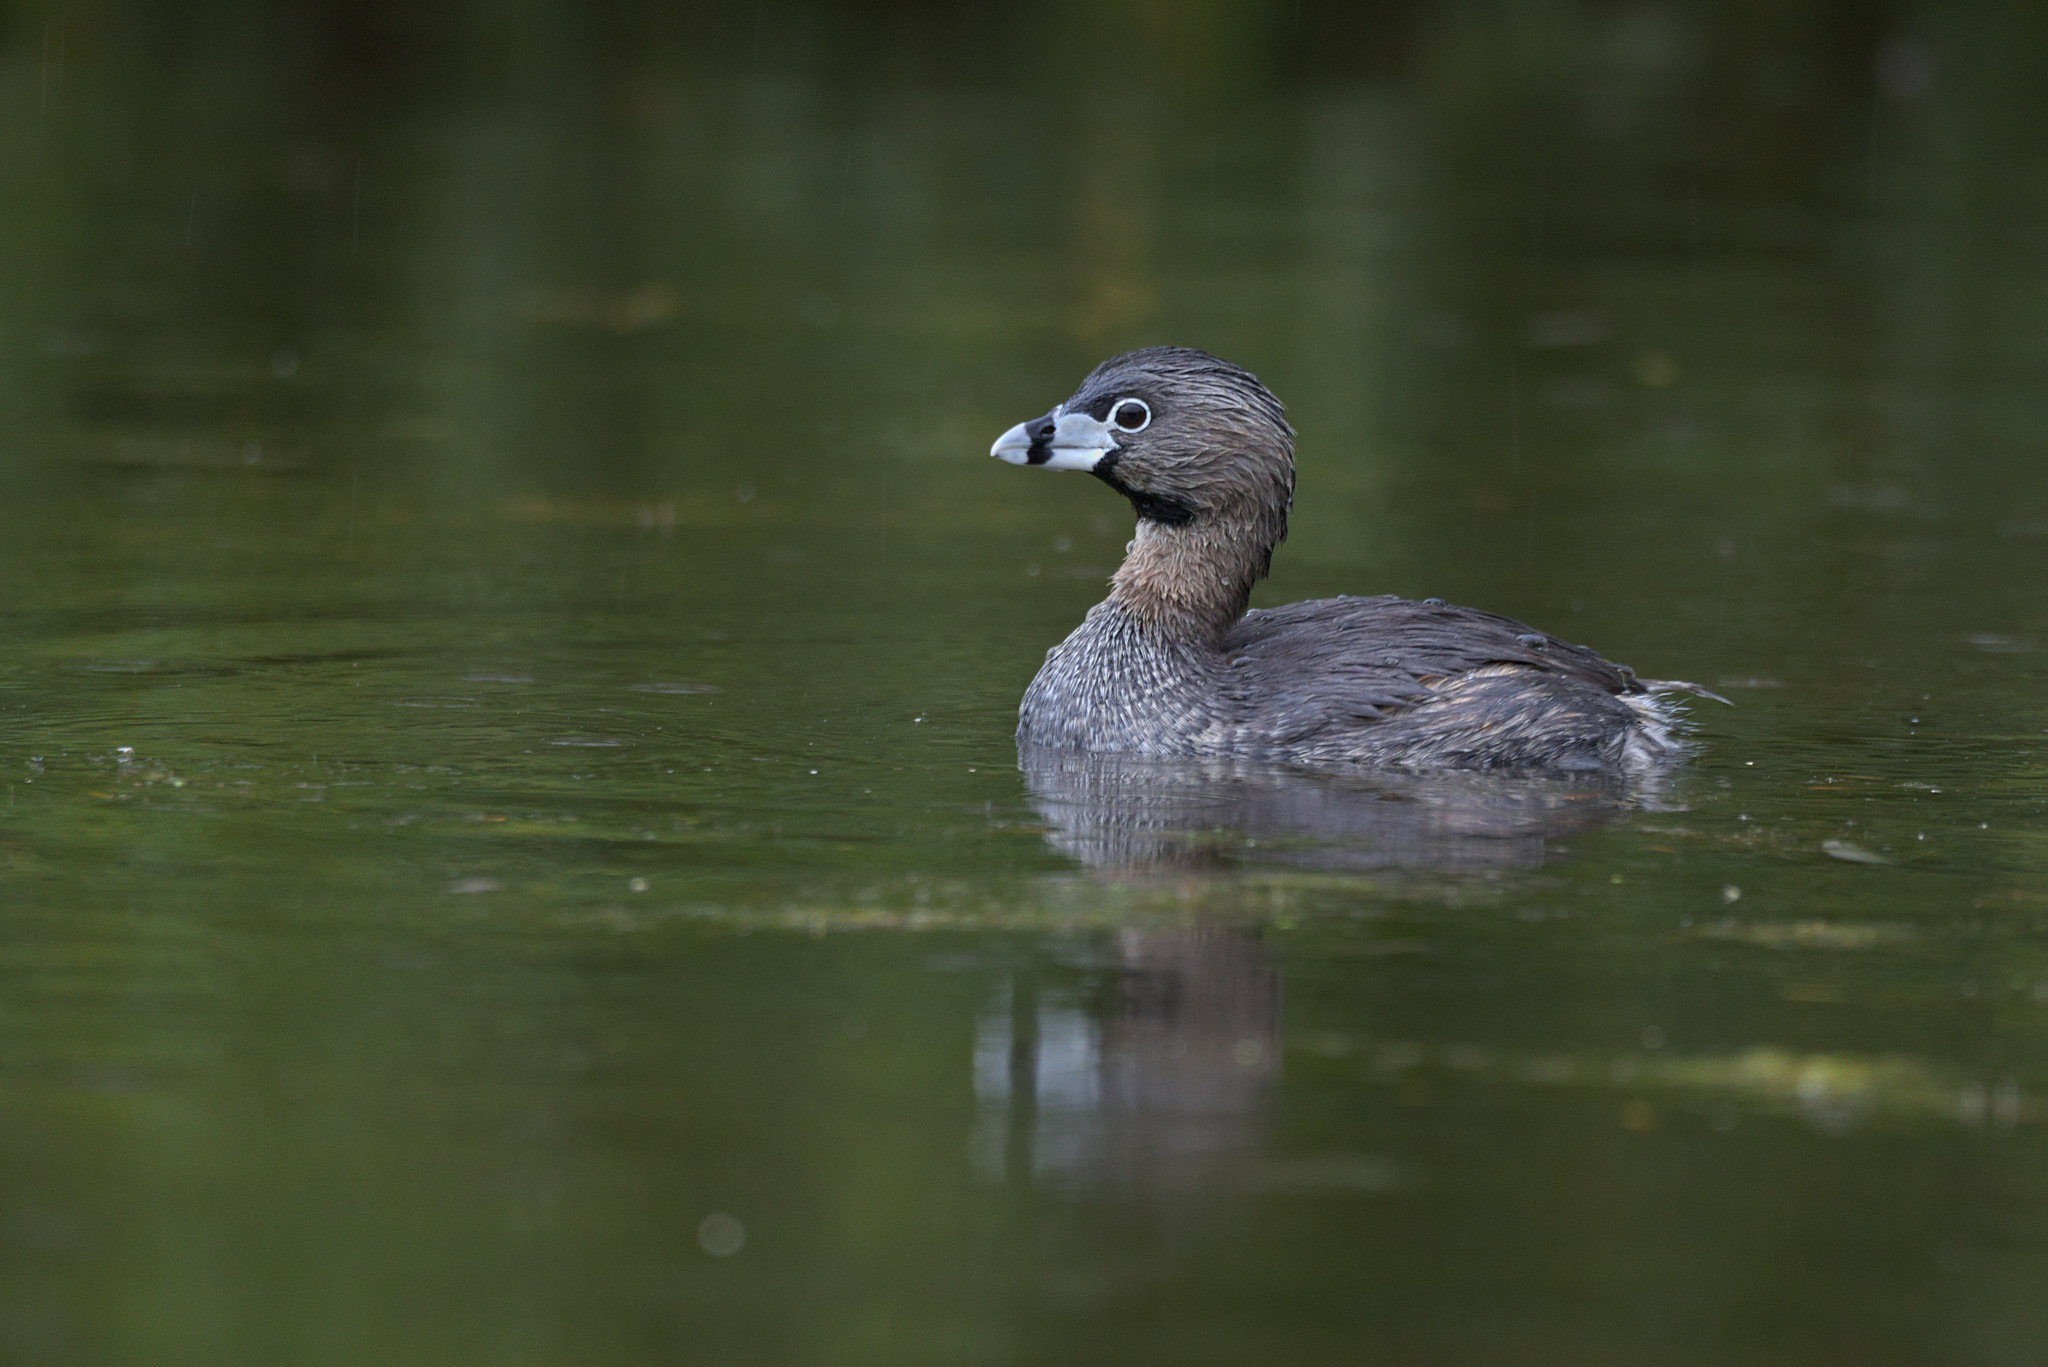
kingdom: Animalia
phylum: Chordata
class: Aves
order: Podicipediformes
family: Podicipedidae
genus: Podilymbus
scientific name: Podilymbus podiceps
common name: Pied-billed grebe
